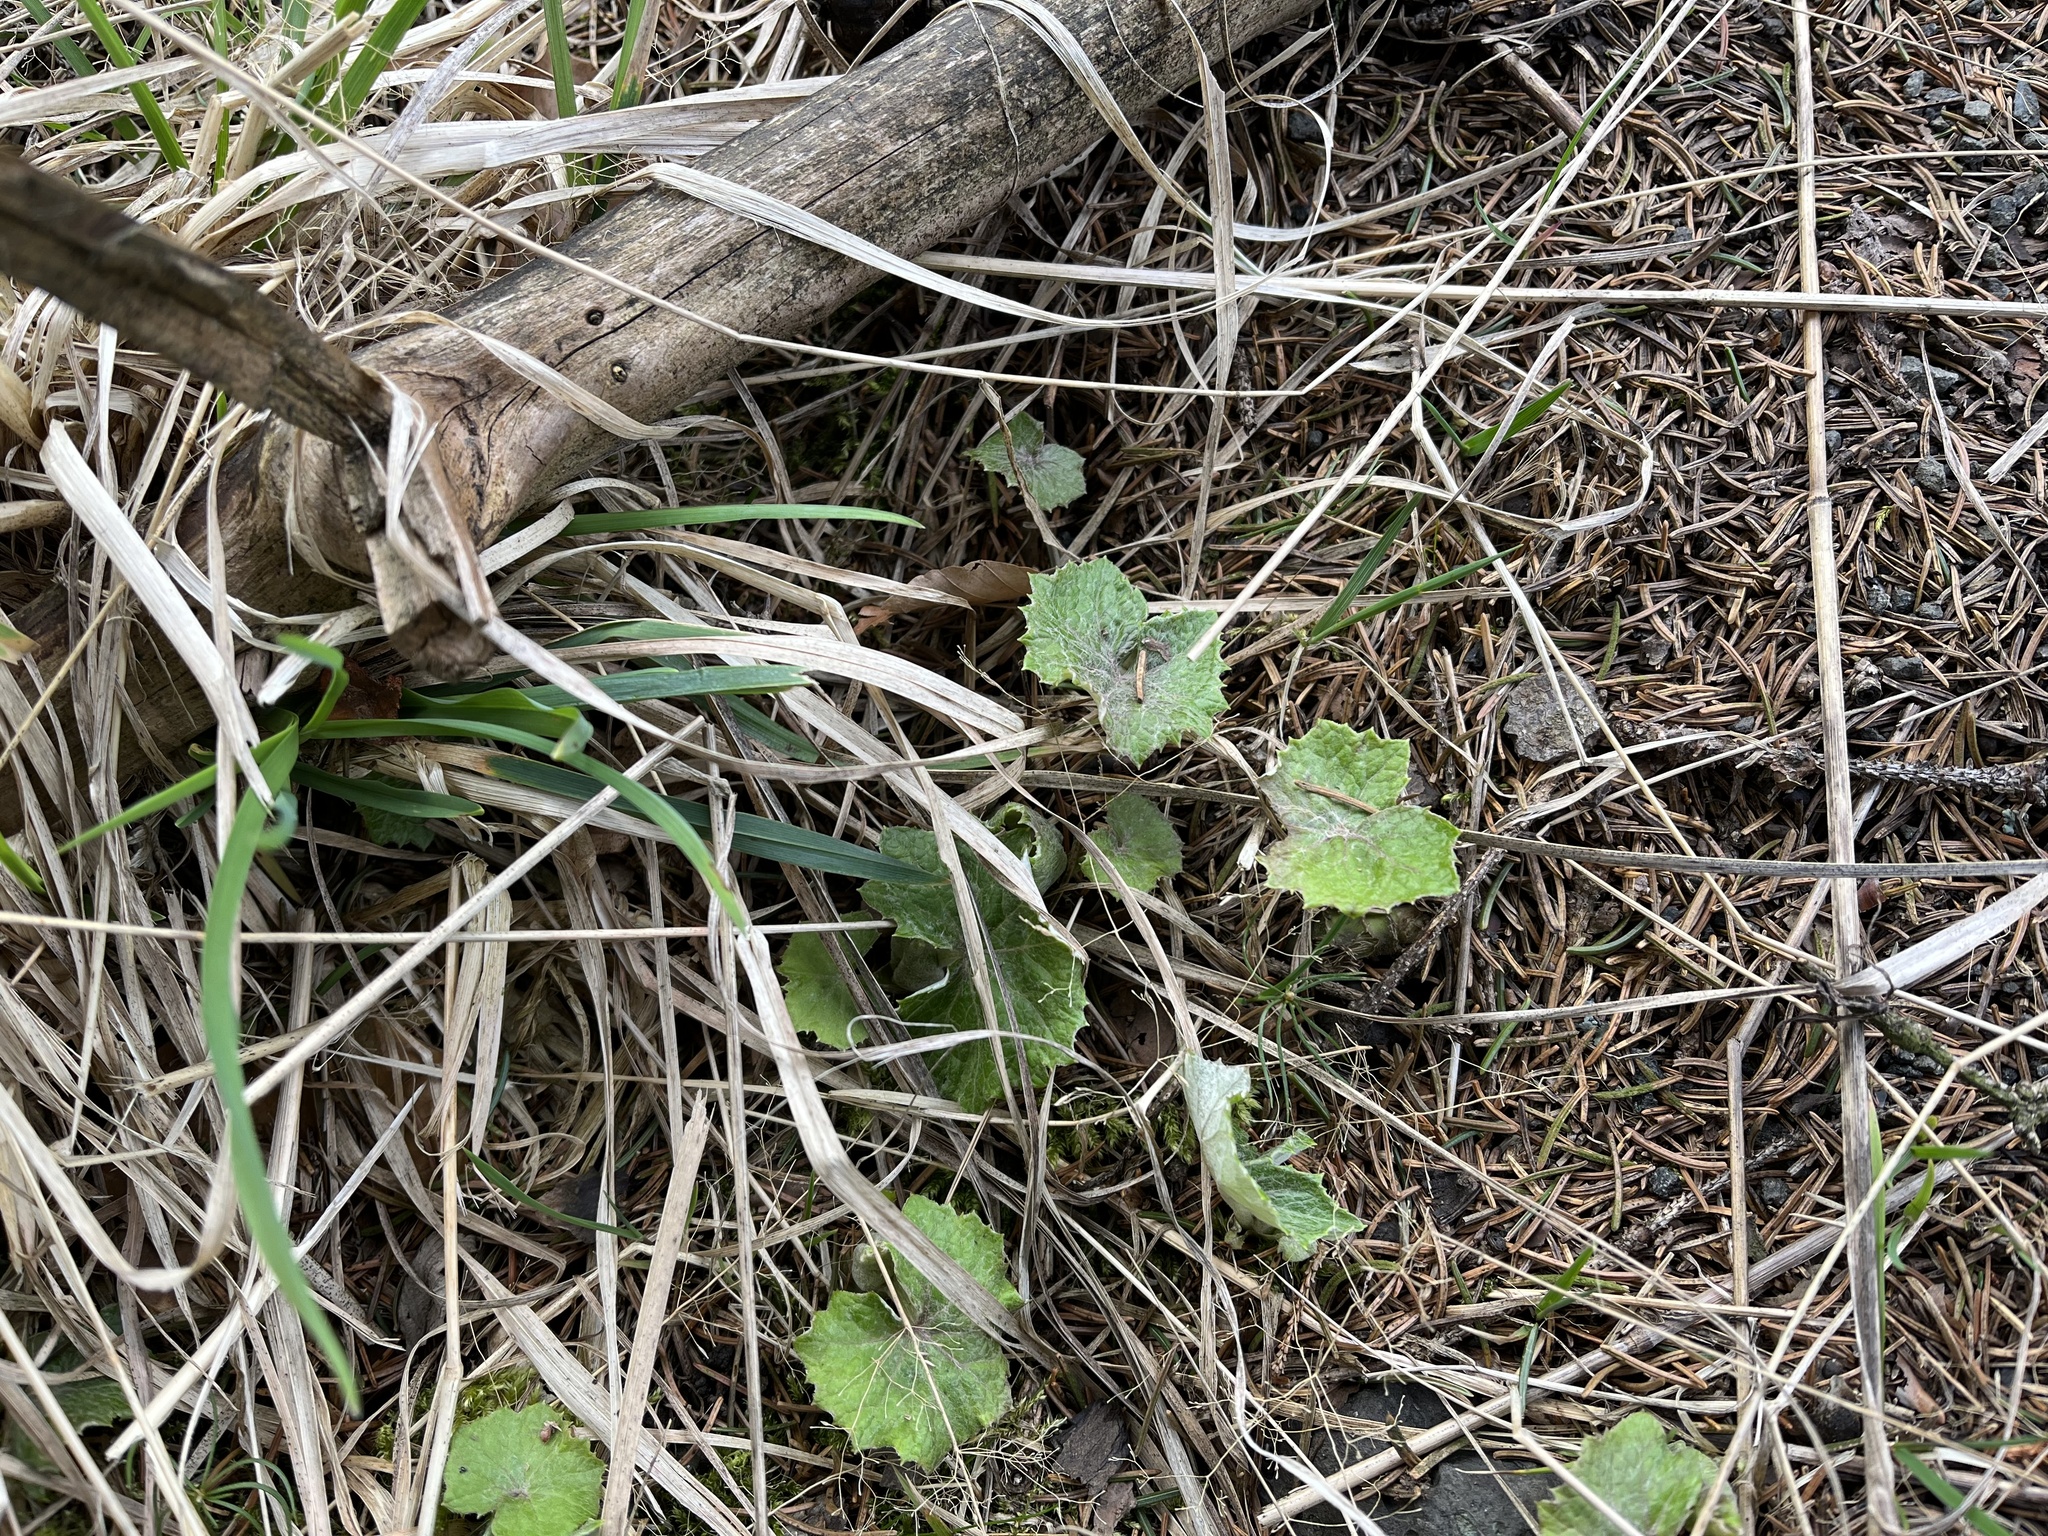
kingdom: Plantae
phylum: Tracheophyta
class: Magnoliopsida
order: Asterales
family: Asteraceae
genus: Petasites
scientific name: Petasites albus
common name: White butterbur
